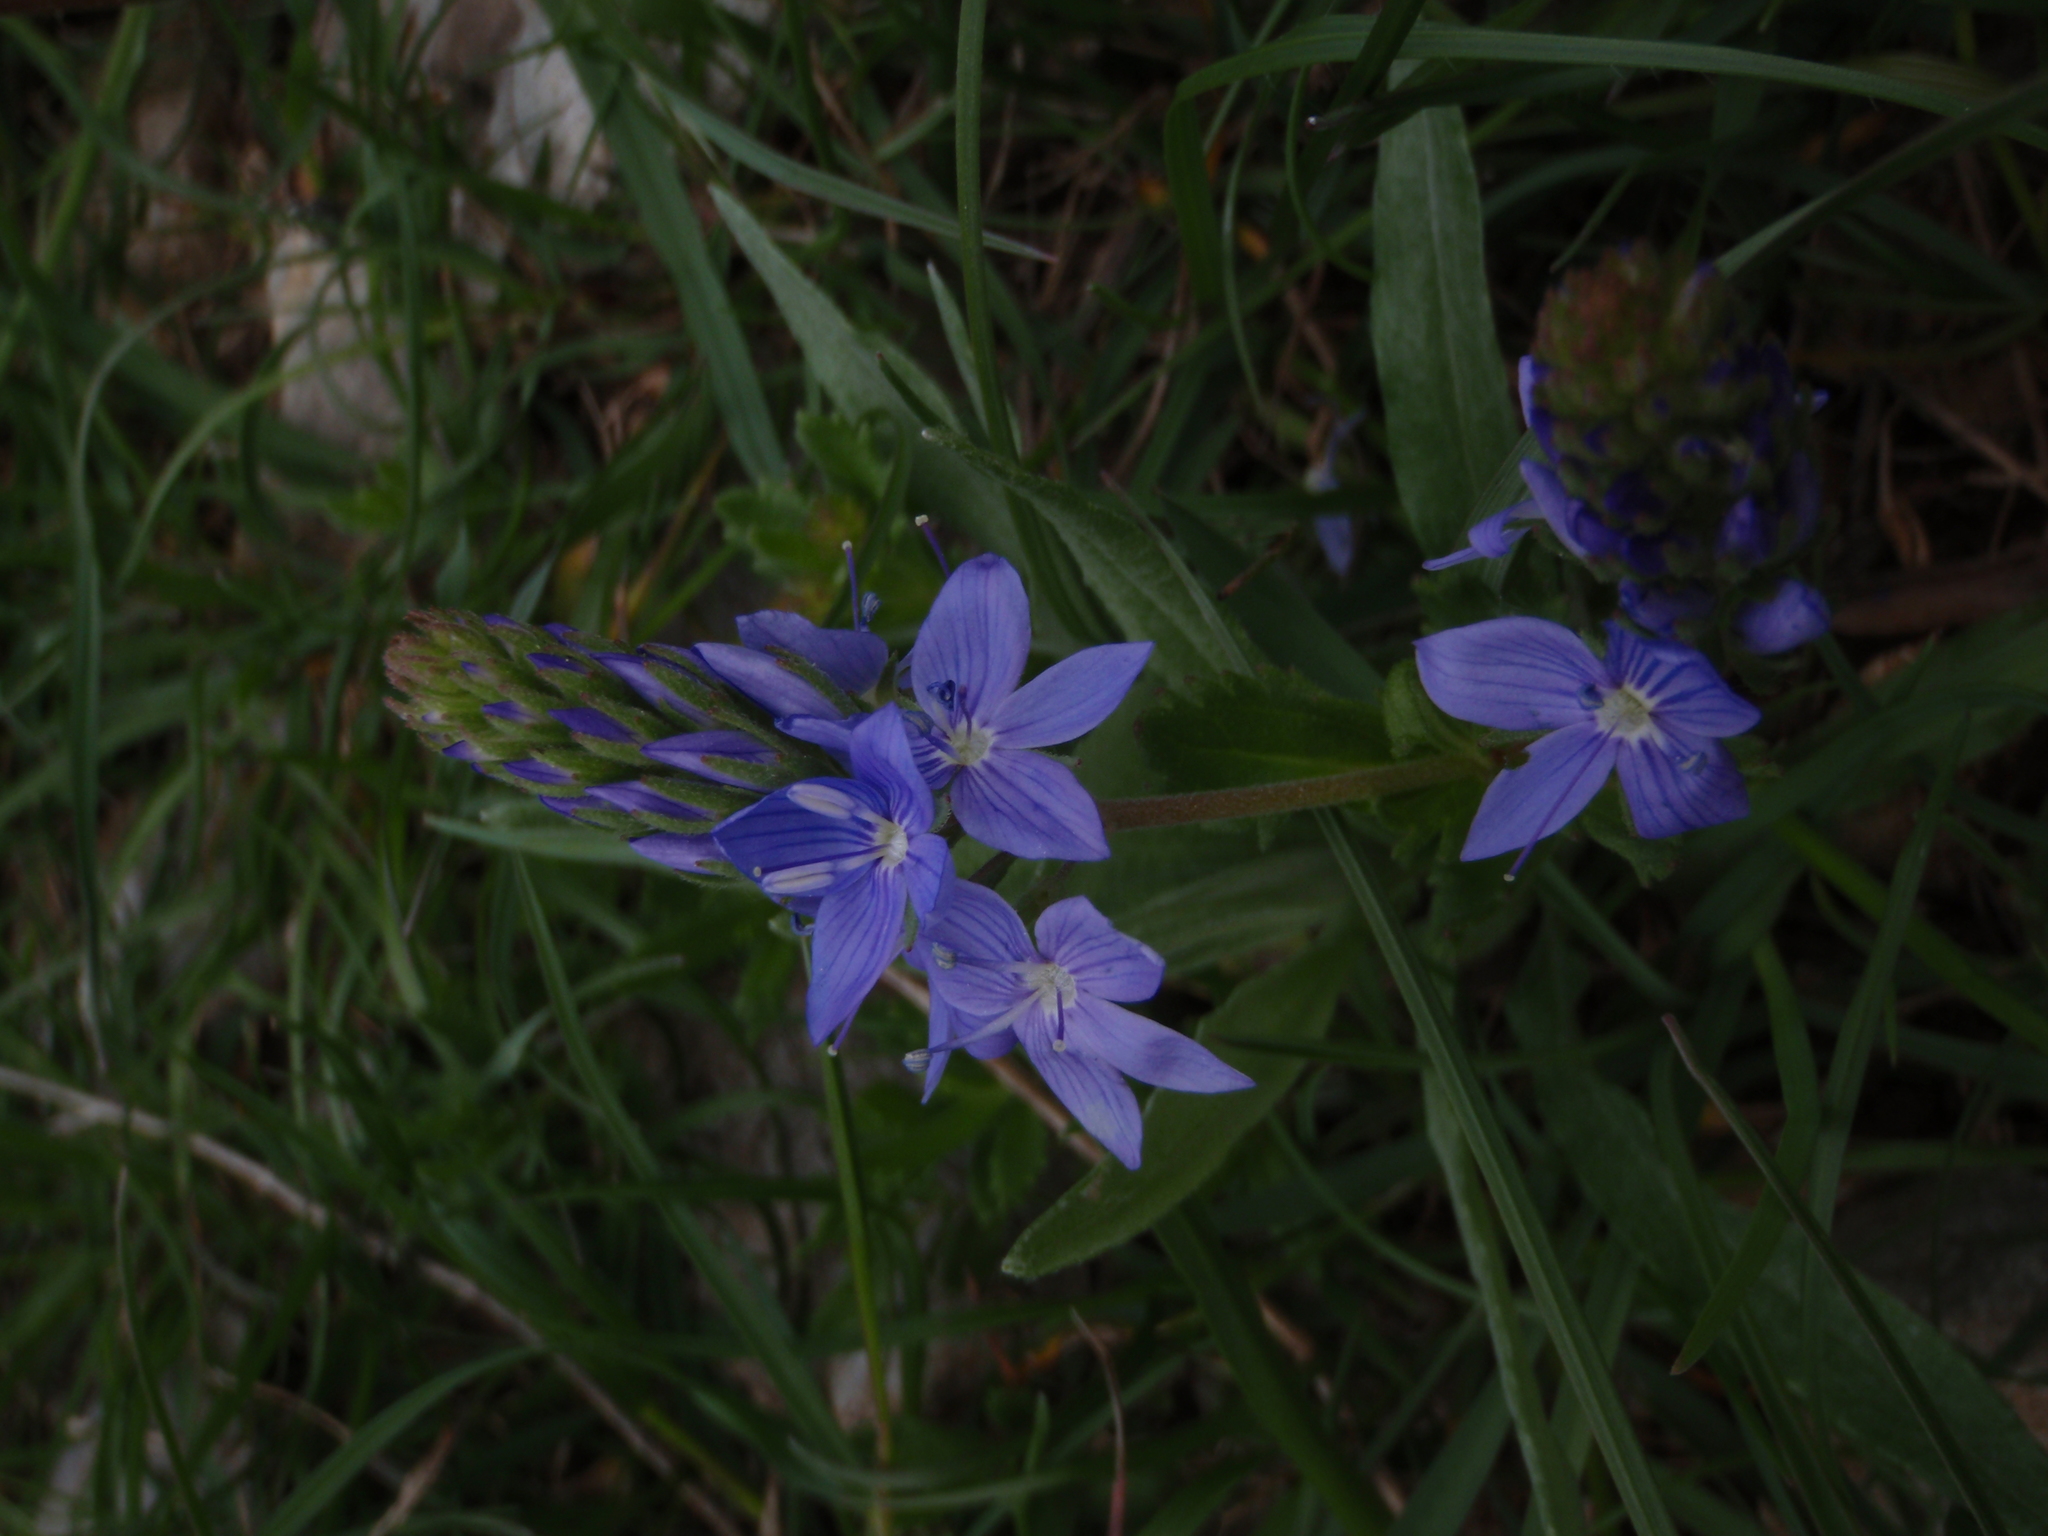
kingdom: Plantae
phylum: Tracheophyta
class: Magnoliopsida
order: Lamiales
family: Plantaginaceae
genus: Veronica
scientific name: Veronica teucrium
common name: Large speedwell
